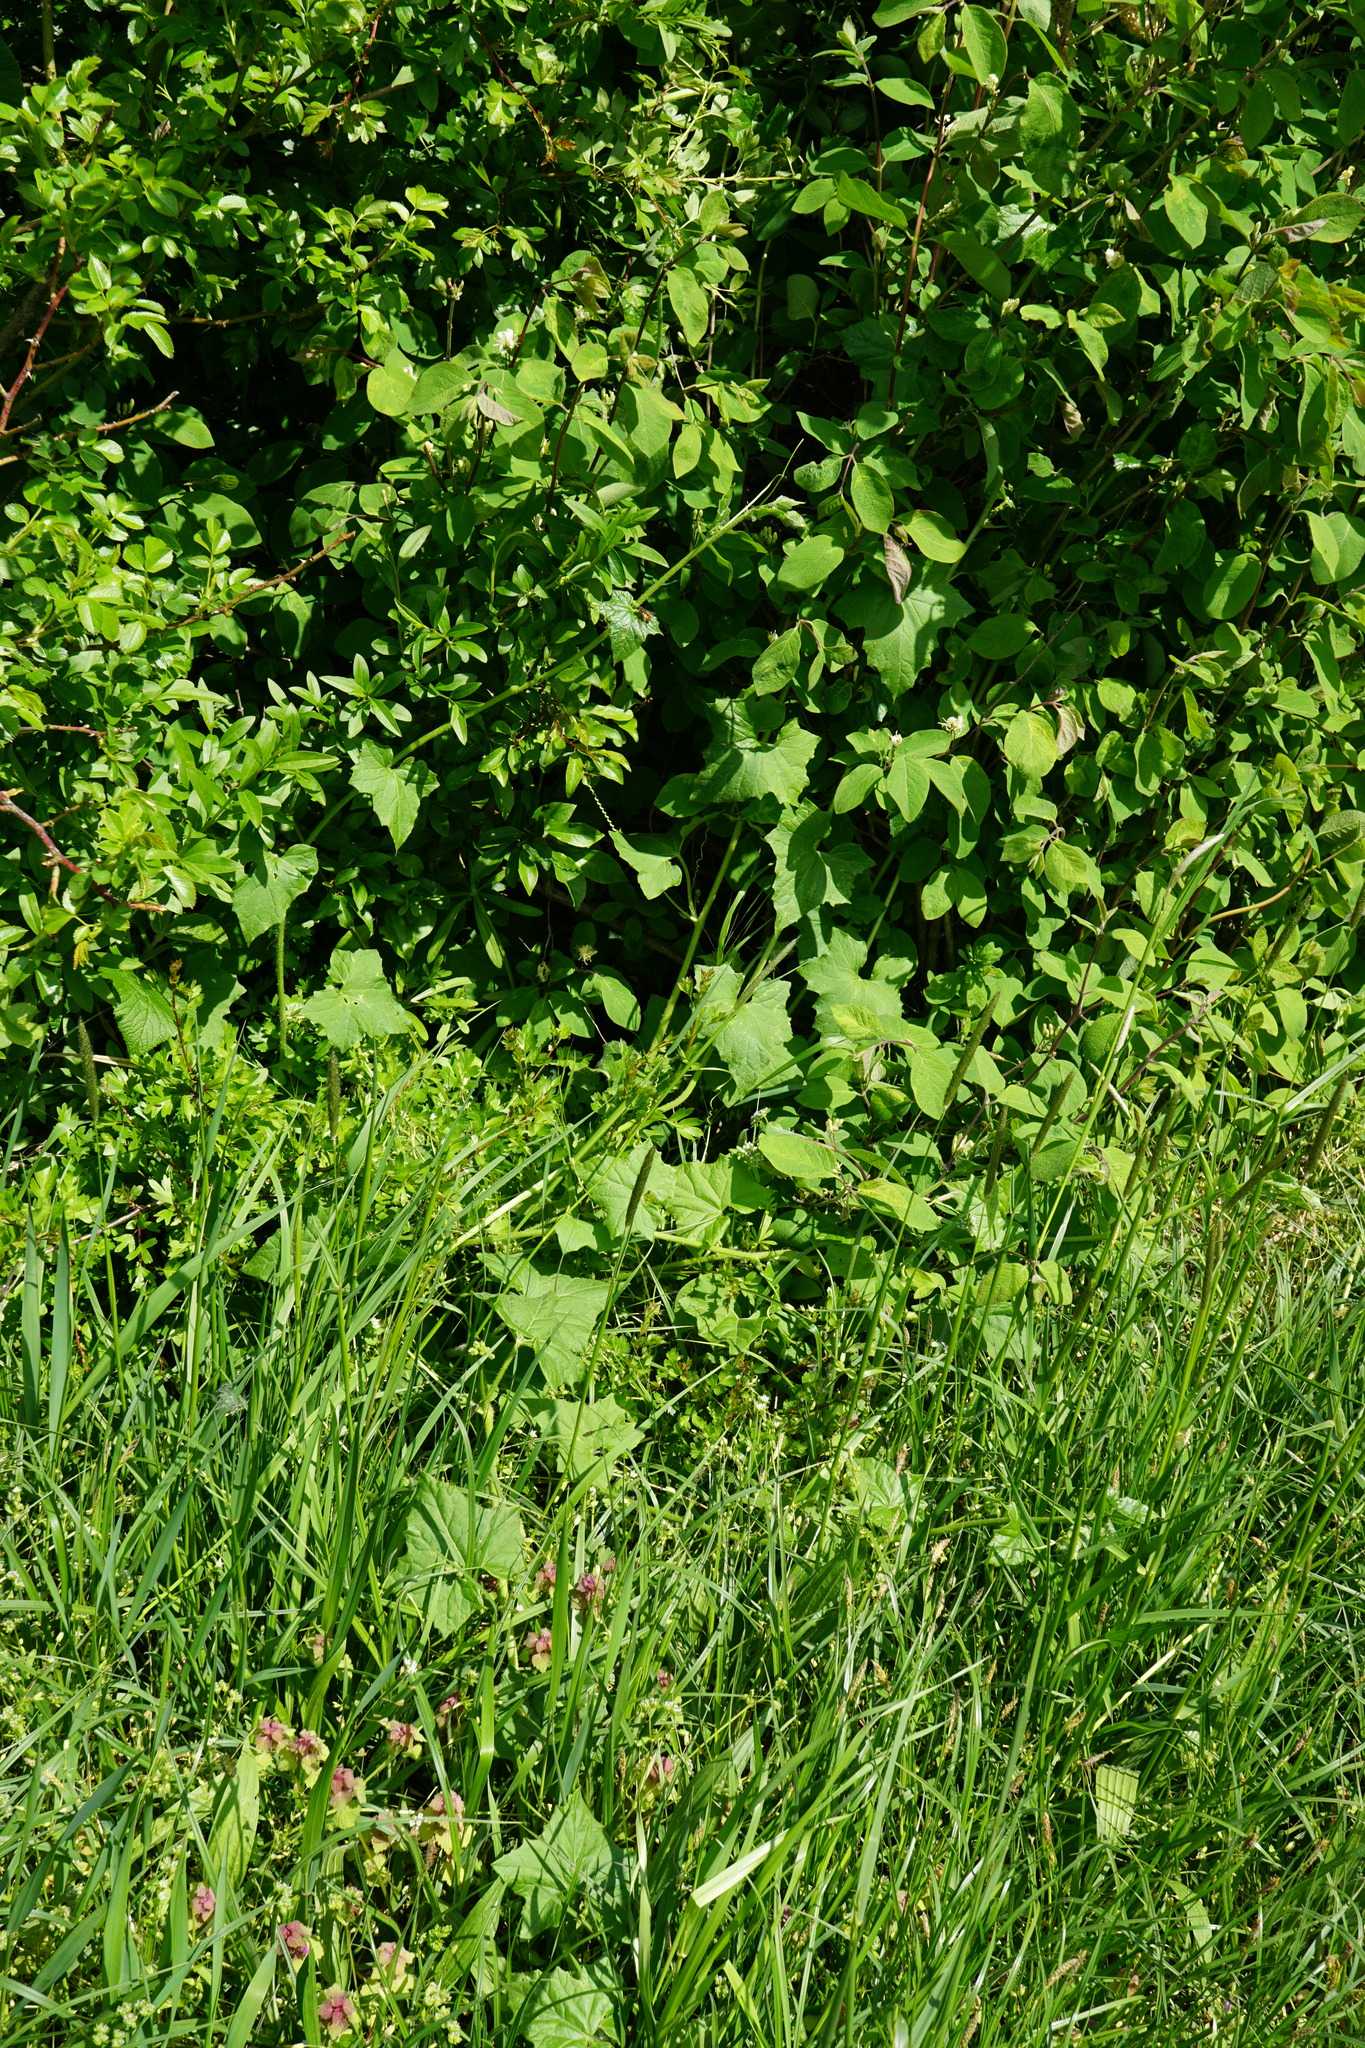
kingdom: Plantae
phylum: Tracheophyta
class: Magnoliopsida
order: Cucurbitales
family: Cucurbitaceae
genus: Bryonia
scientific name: Bryonia dioica
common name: White bryony
